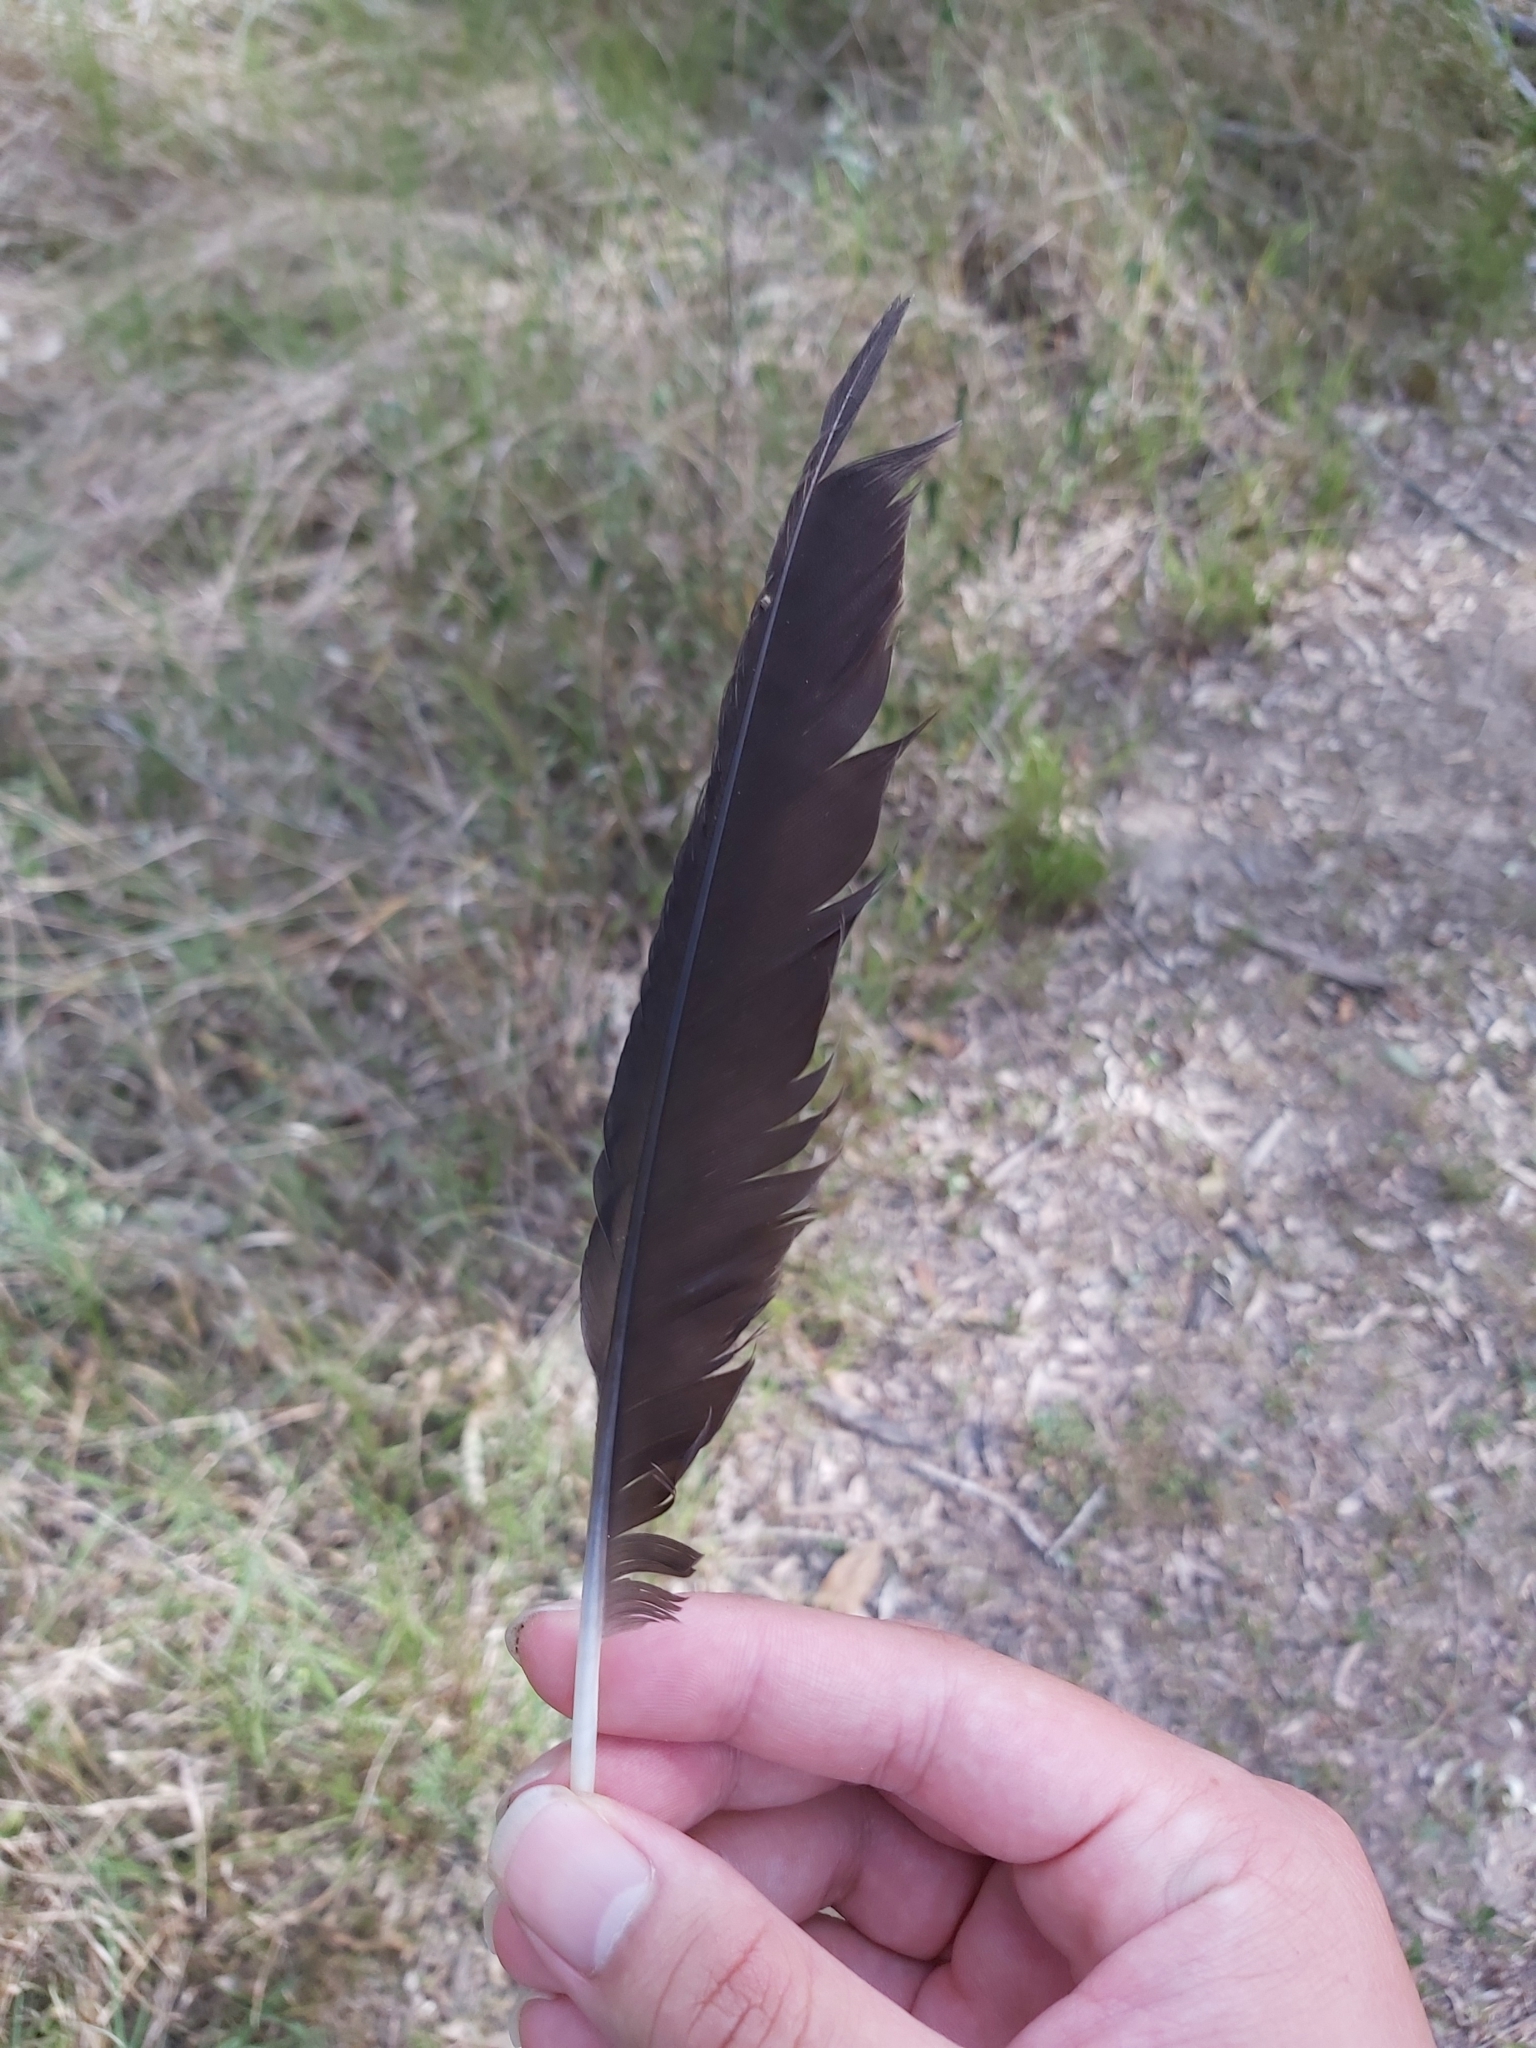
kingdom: Animalia
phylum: Chordata
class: Aves
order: Passeriformes
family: Cracticidae
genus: Gymnorhina
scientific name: Gymnorhina tibicen
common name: Australian magpie
